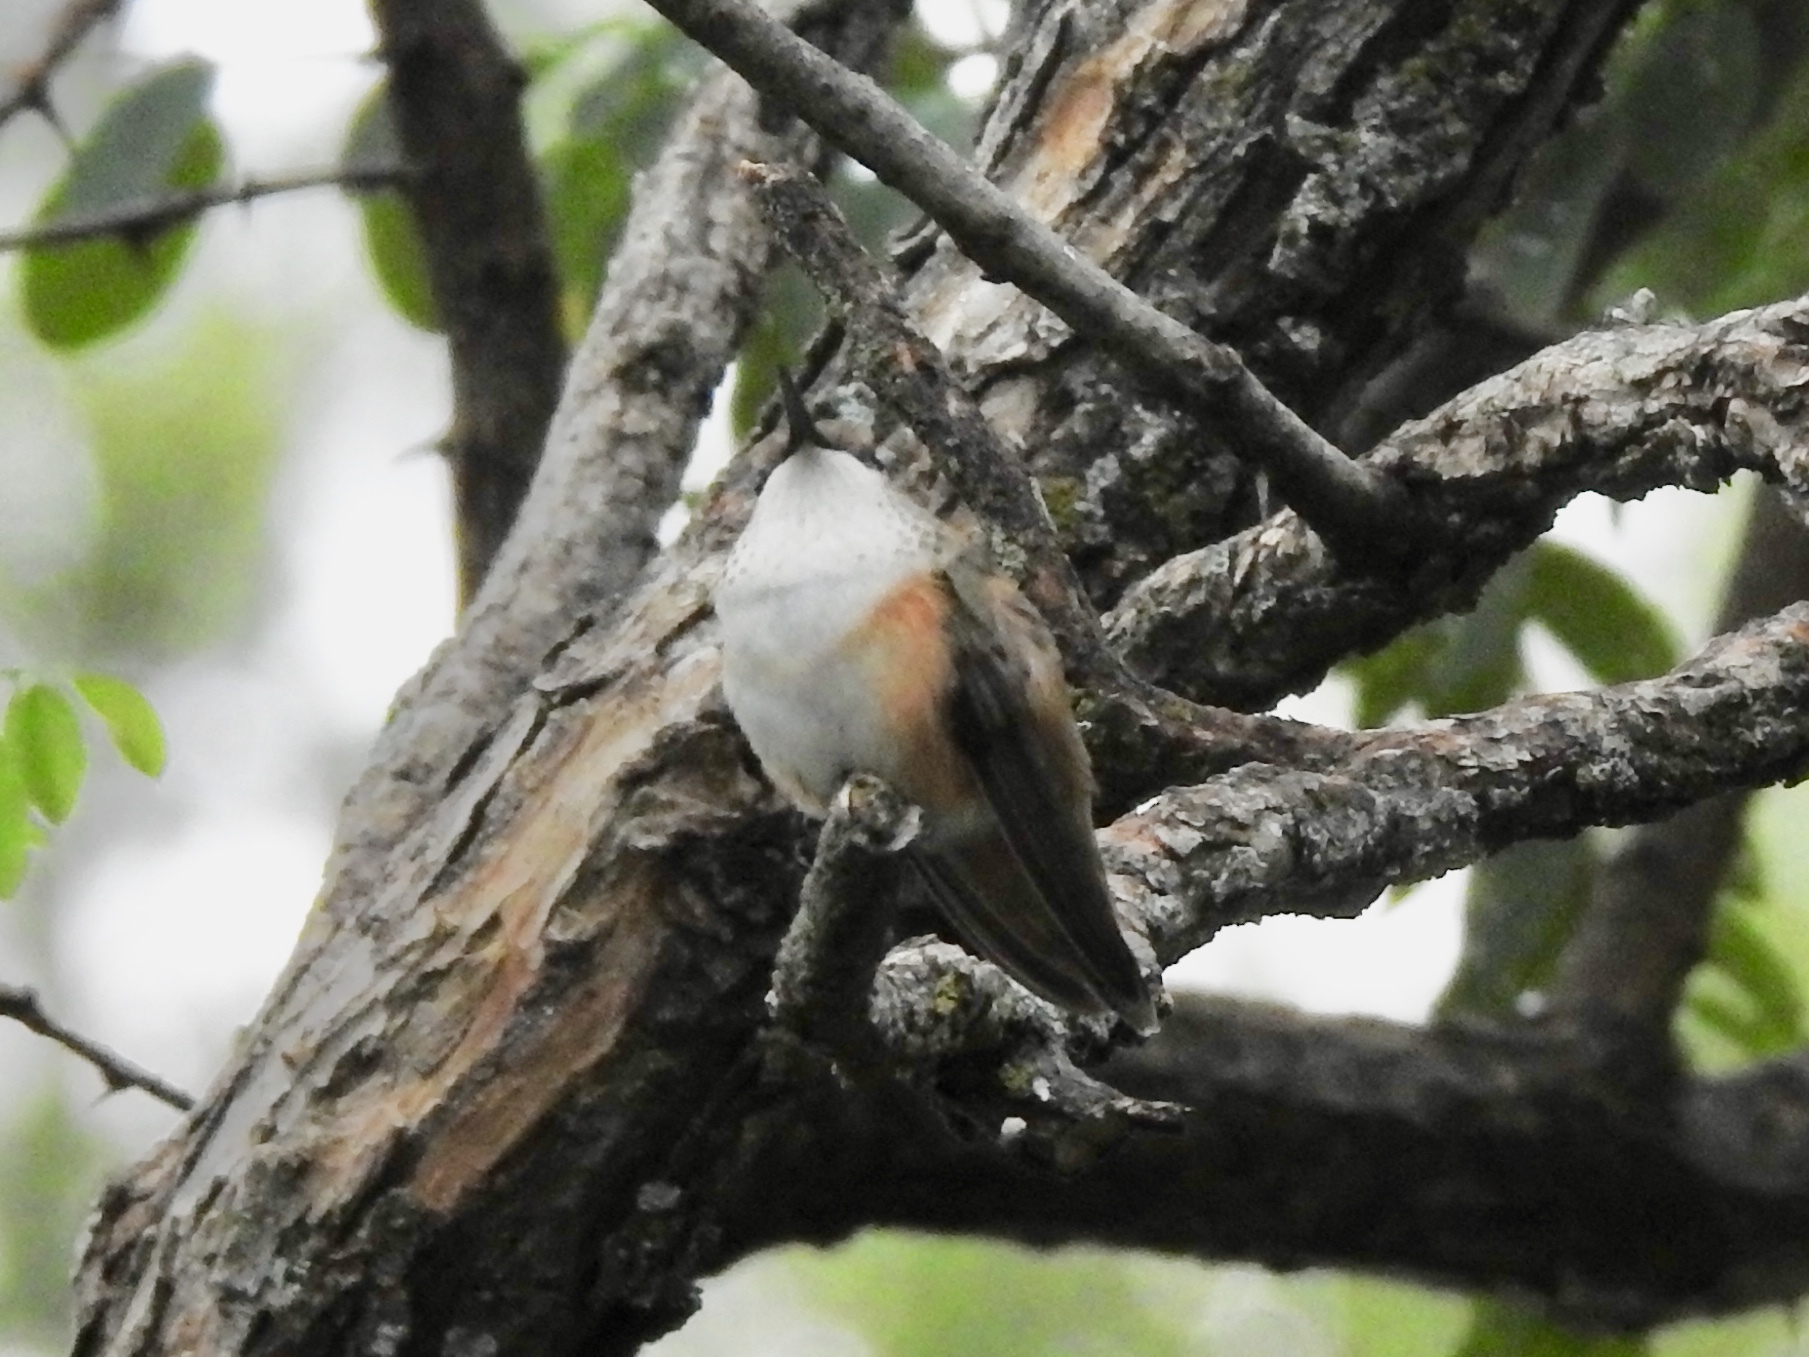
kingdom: Animalia
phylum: Chordata
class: Aves
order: Apodiformes
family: Trochilidae
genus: Selasphorus
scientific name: Selasphorus rufus
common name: Rufous hummingbird
